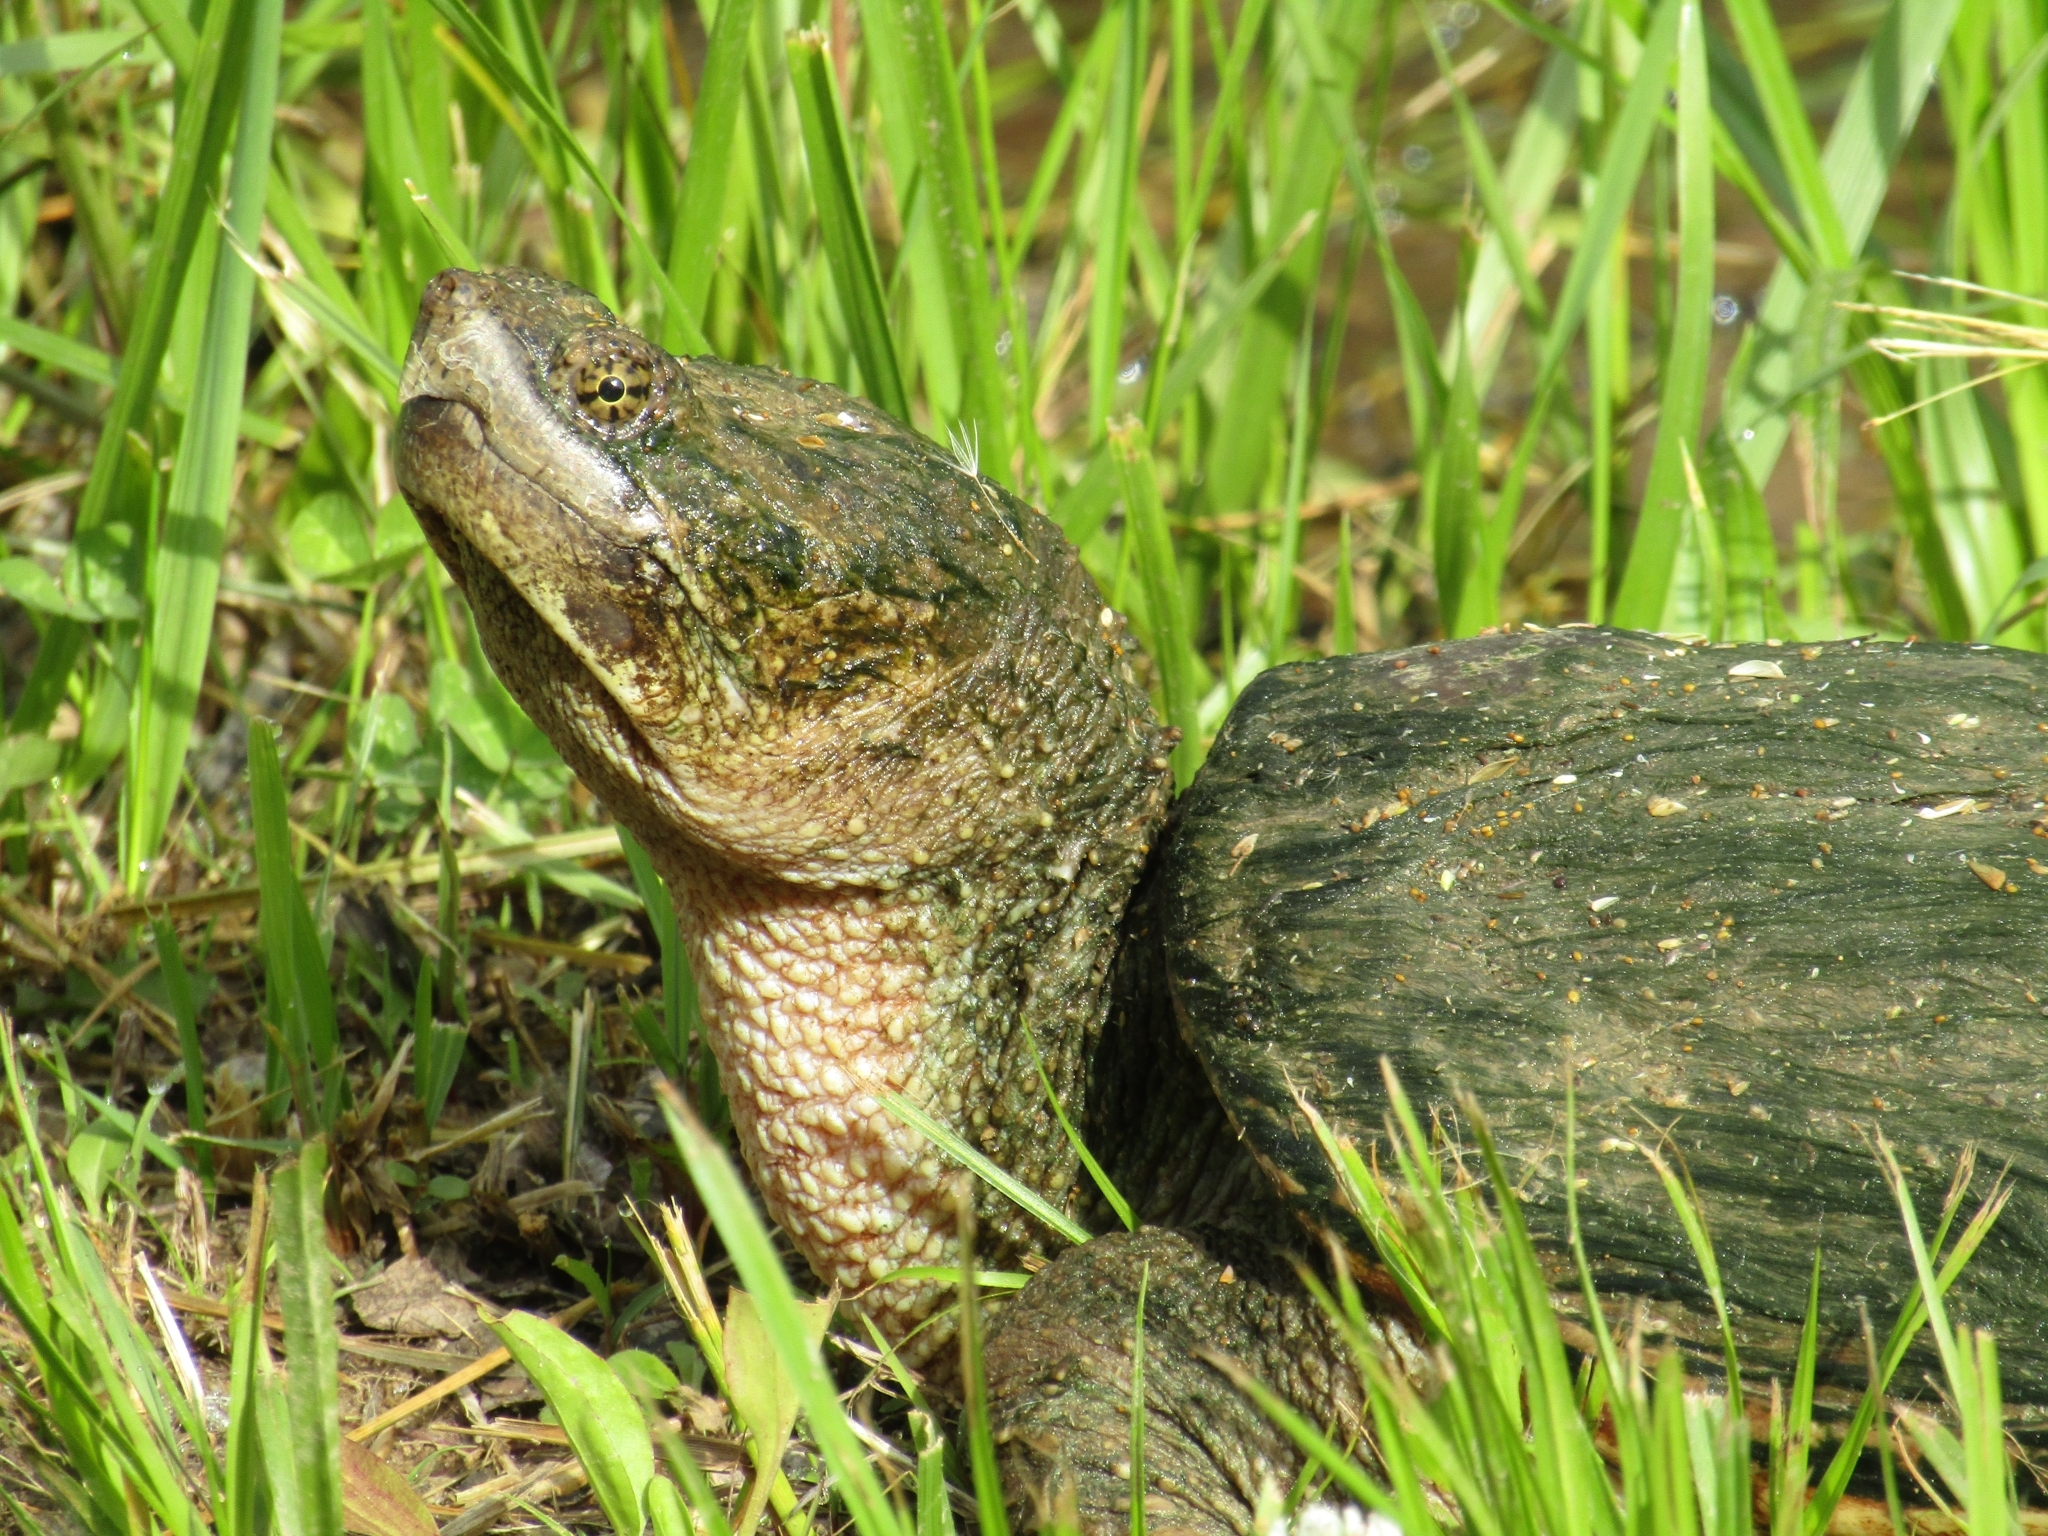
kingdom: Animalia
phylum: Chordata
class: Testudines
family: Chelydridae
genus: Chelydra
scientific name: Chelydra serpentina
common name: Common snapping turtle
